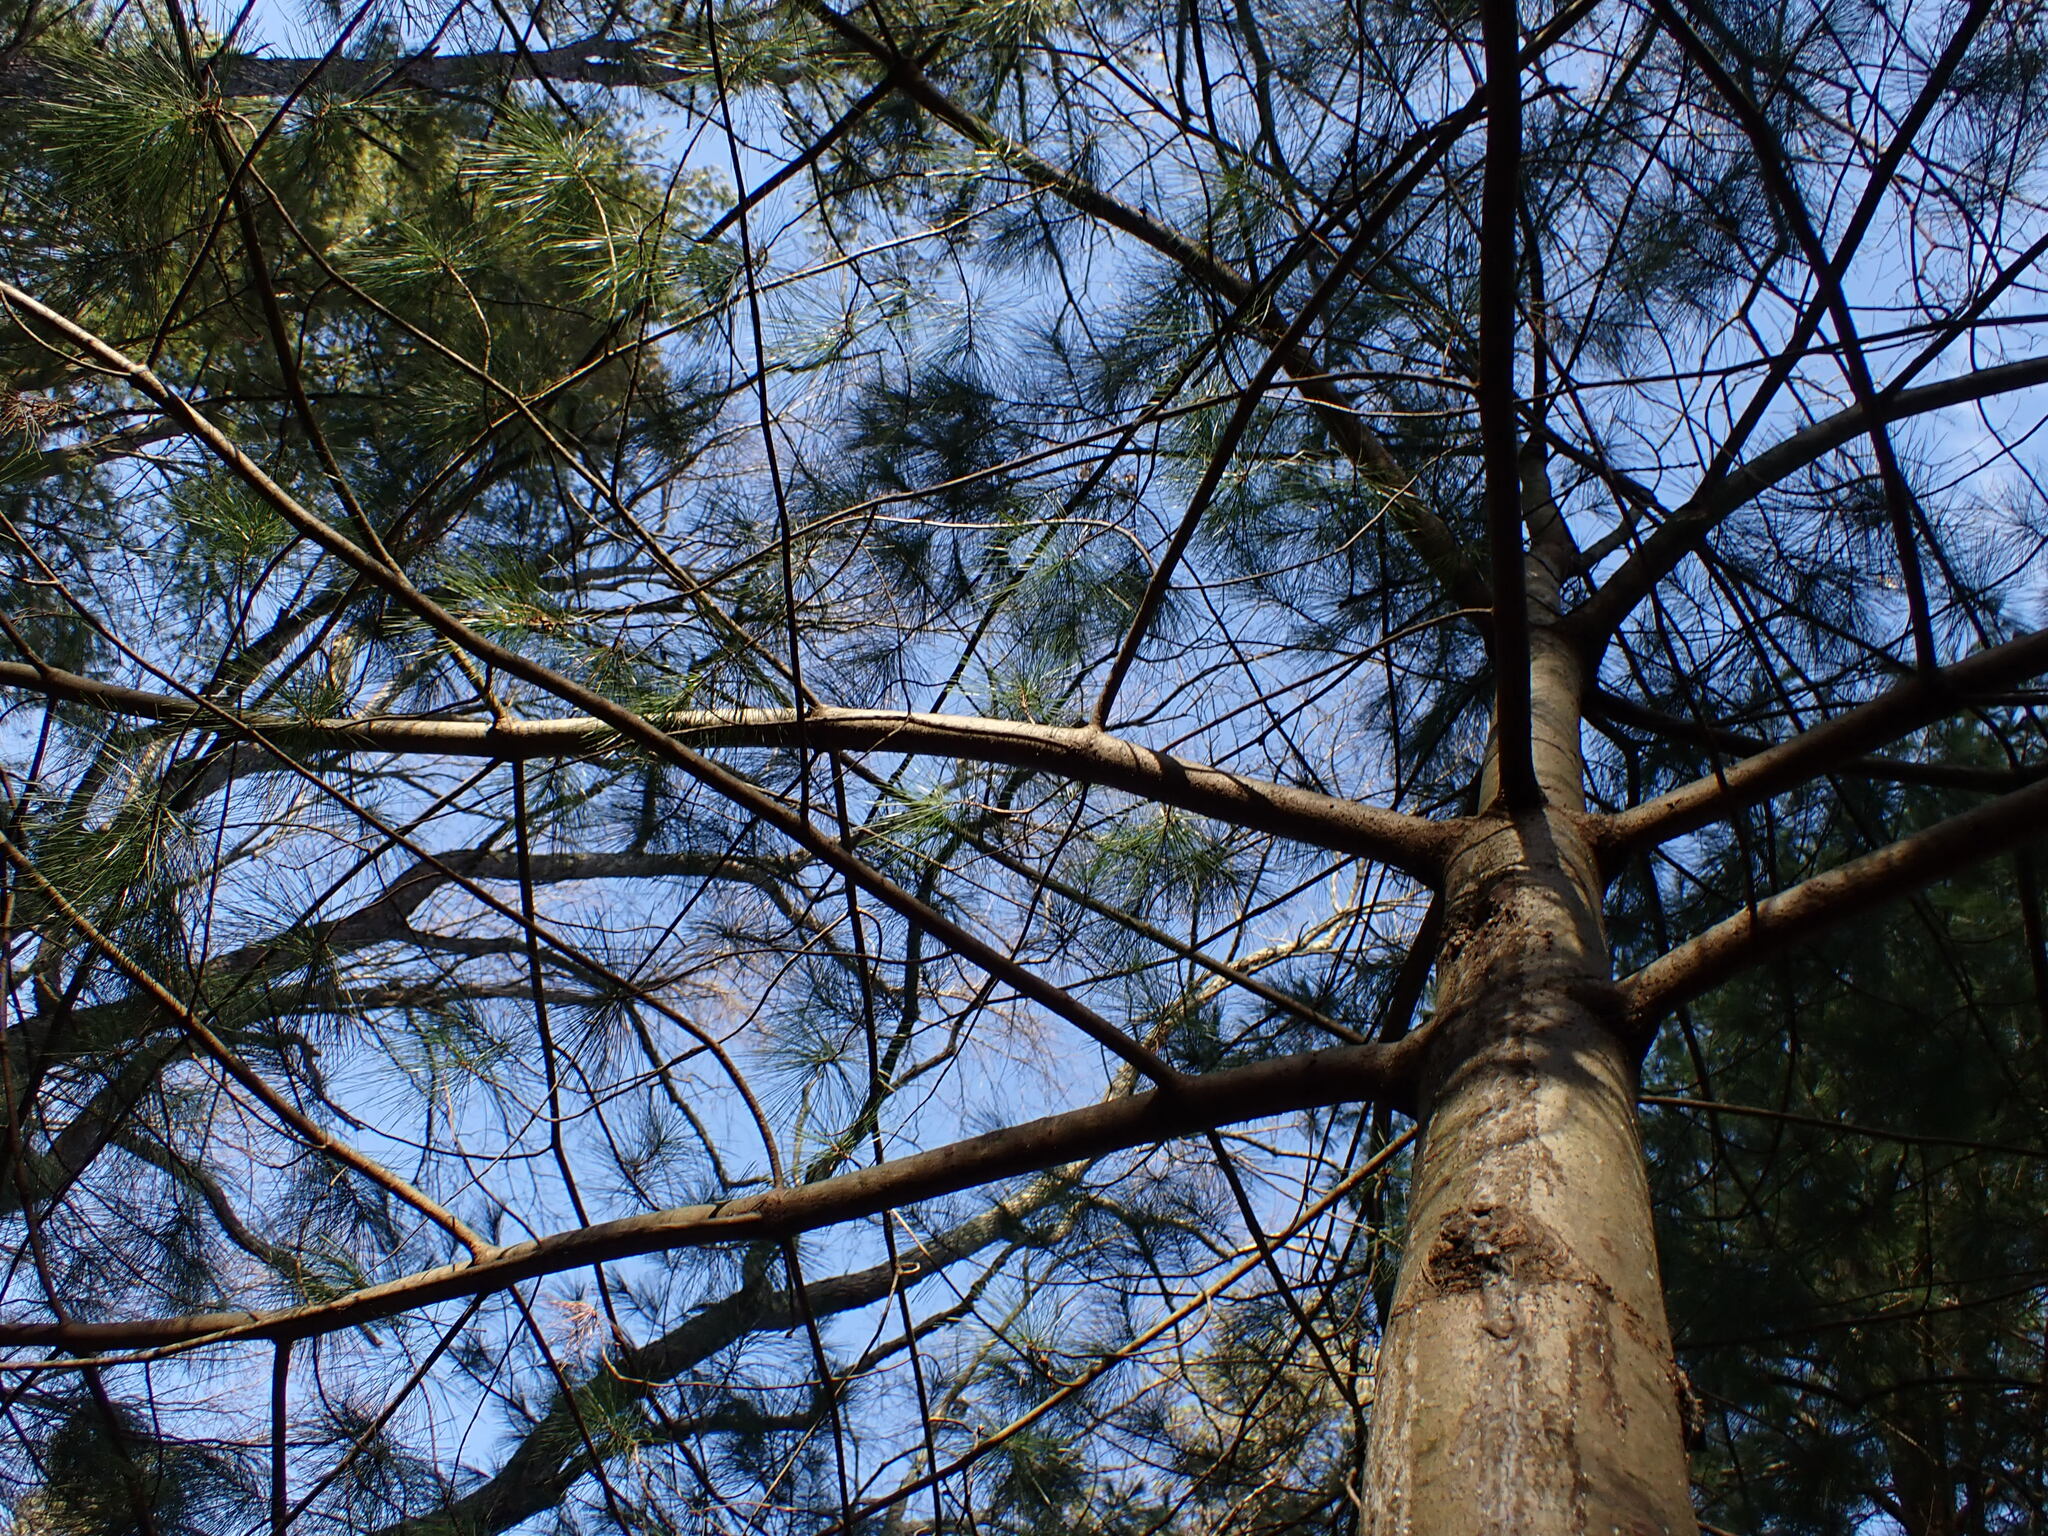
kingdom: Plantae
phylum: Tracheophyta
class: Pinopsida
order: Pinales
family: Pinaceae
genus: Pinus
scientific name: Pinus strobus
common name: Weymouth pine
